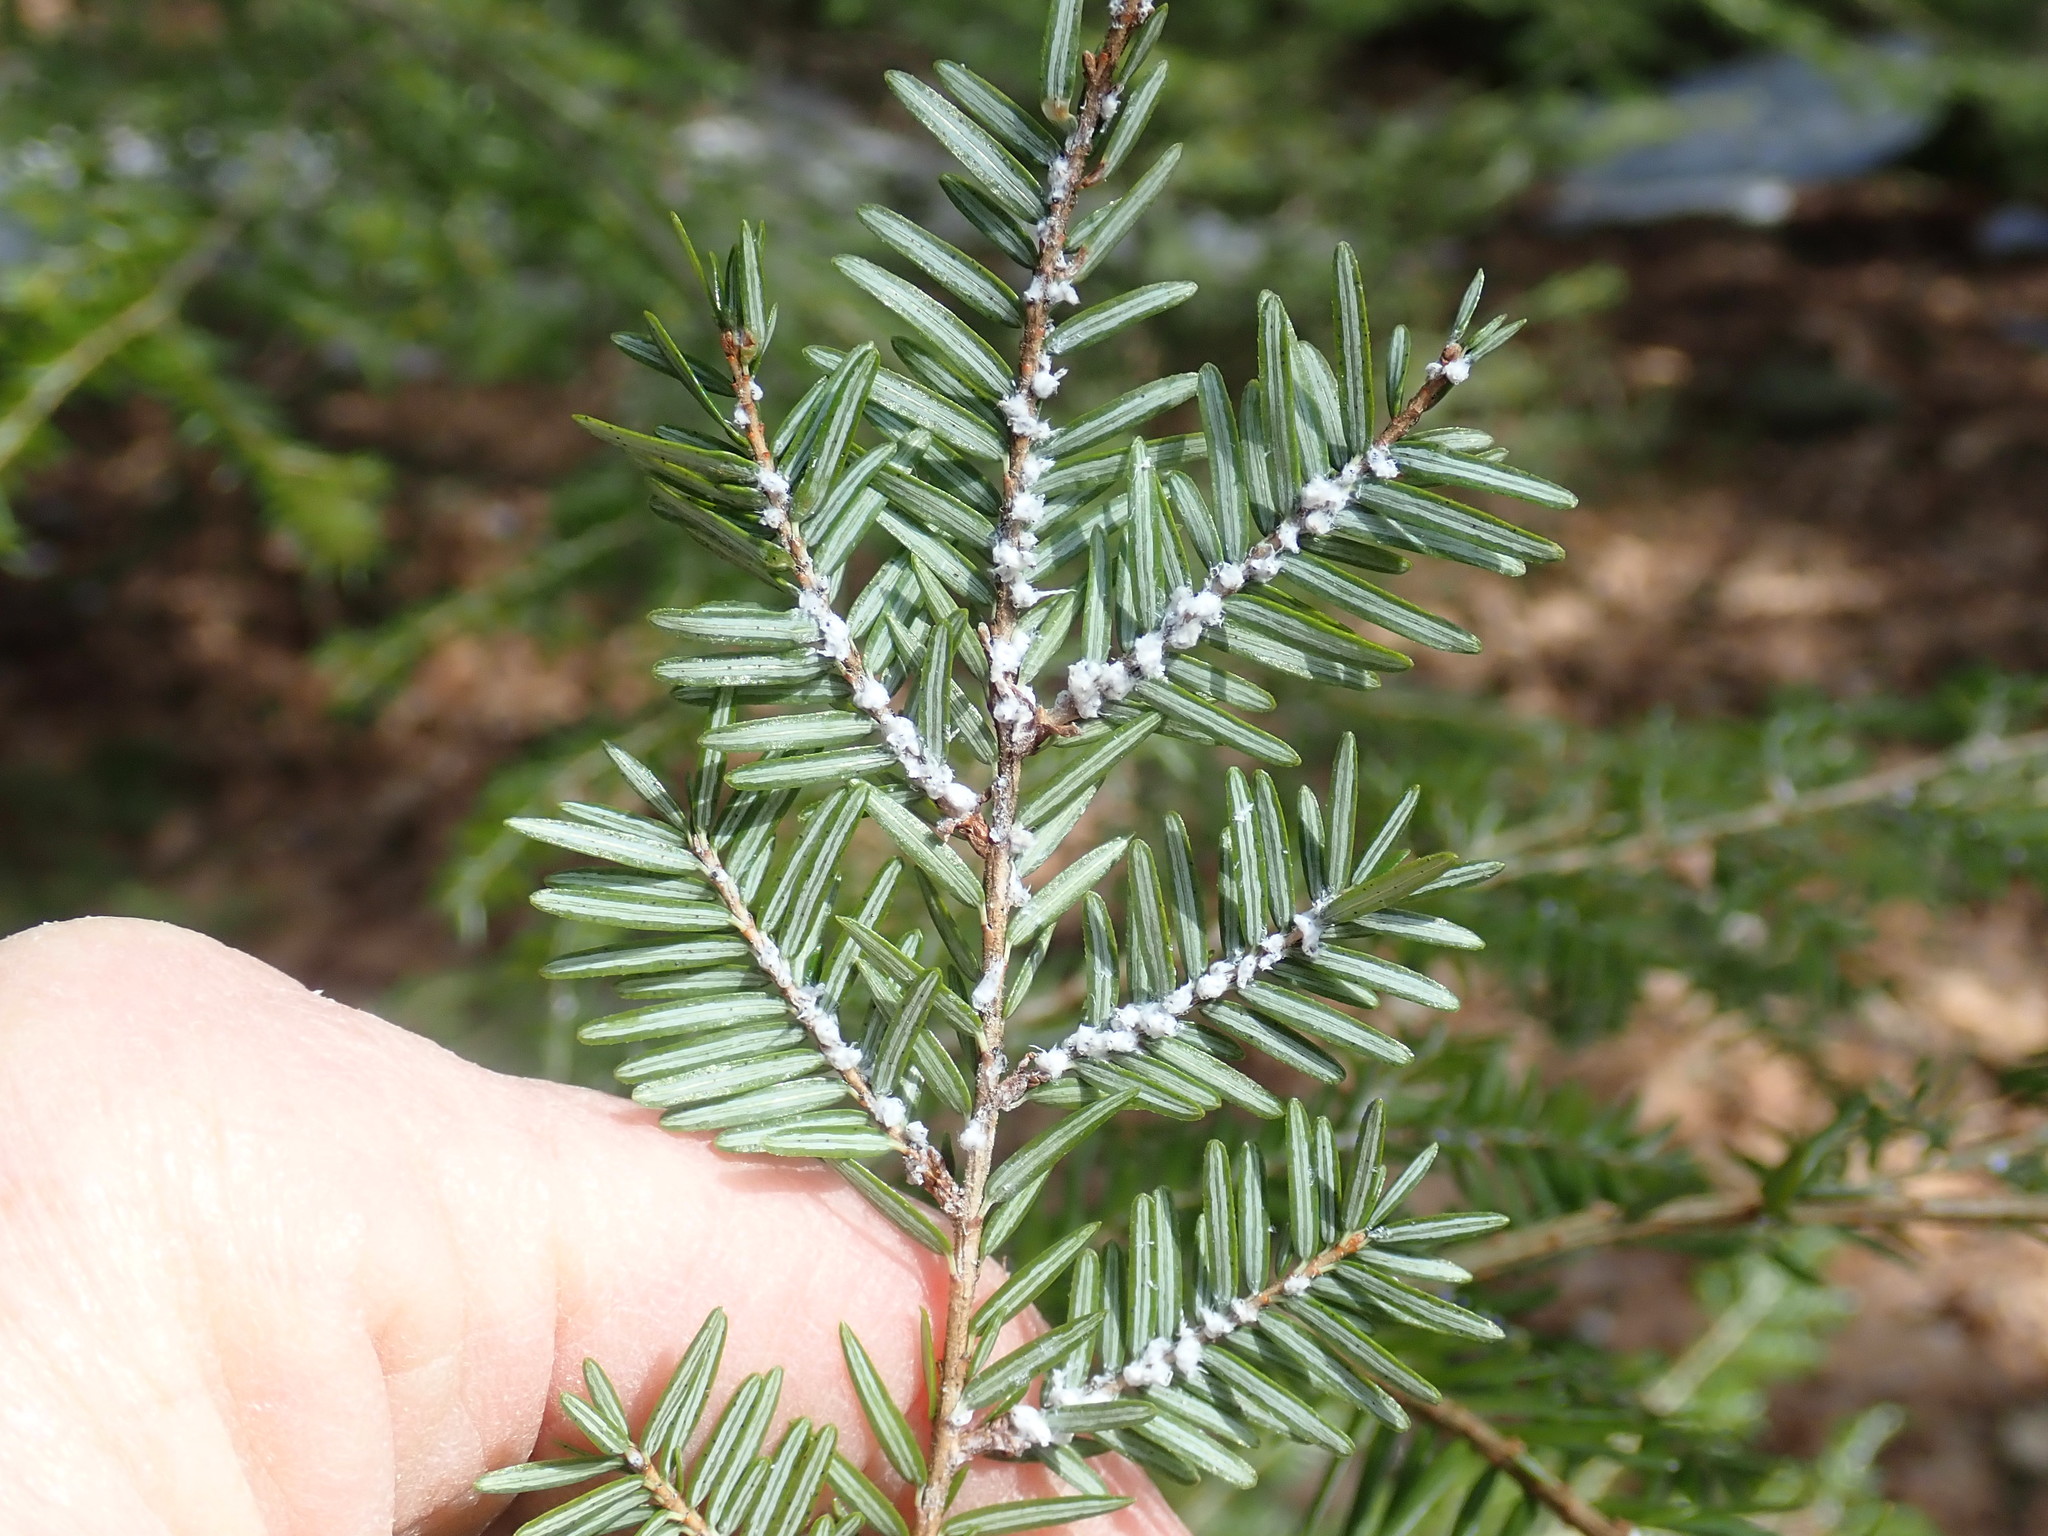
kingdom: Animalia
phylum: Arthropoda
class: Insecta
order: Hemiptera
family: Adelgidae
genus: Adelges
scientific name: Adelges tsugae
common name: Hemlock woolly adelgid
